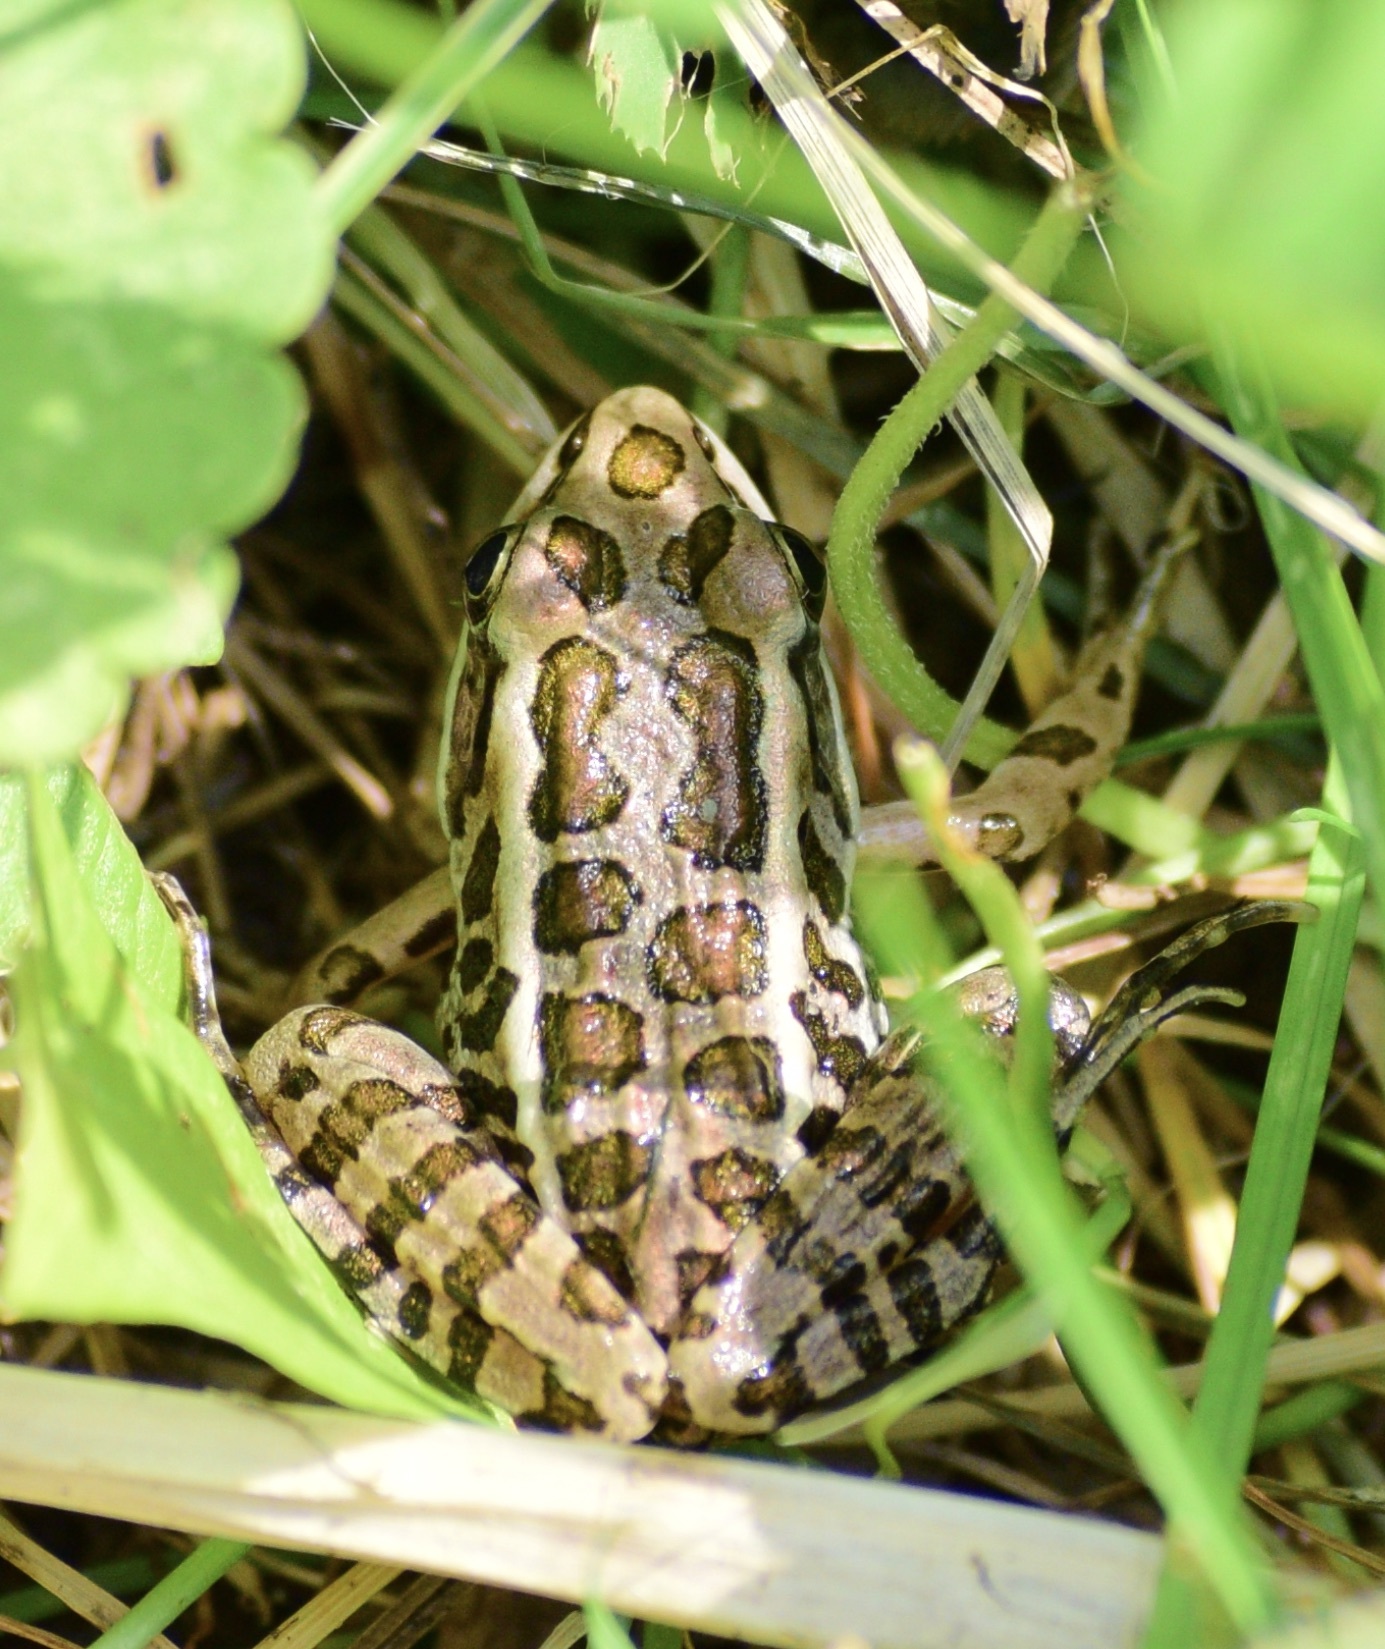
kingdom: Animalia
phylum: Chordata
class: Amphibia
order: Anura
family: Ranidae
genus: Lithobates
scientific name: Lithobates palustris
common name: Pickerel frog
